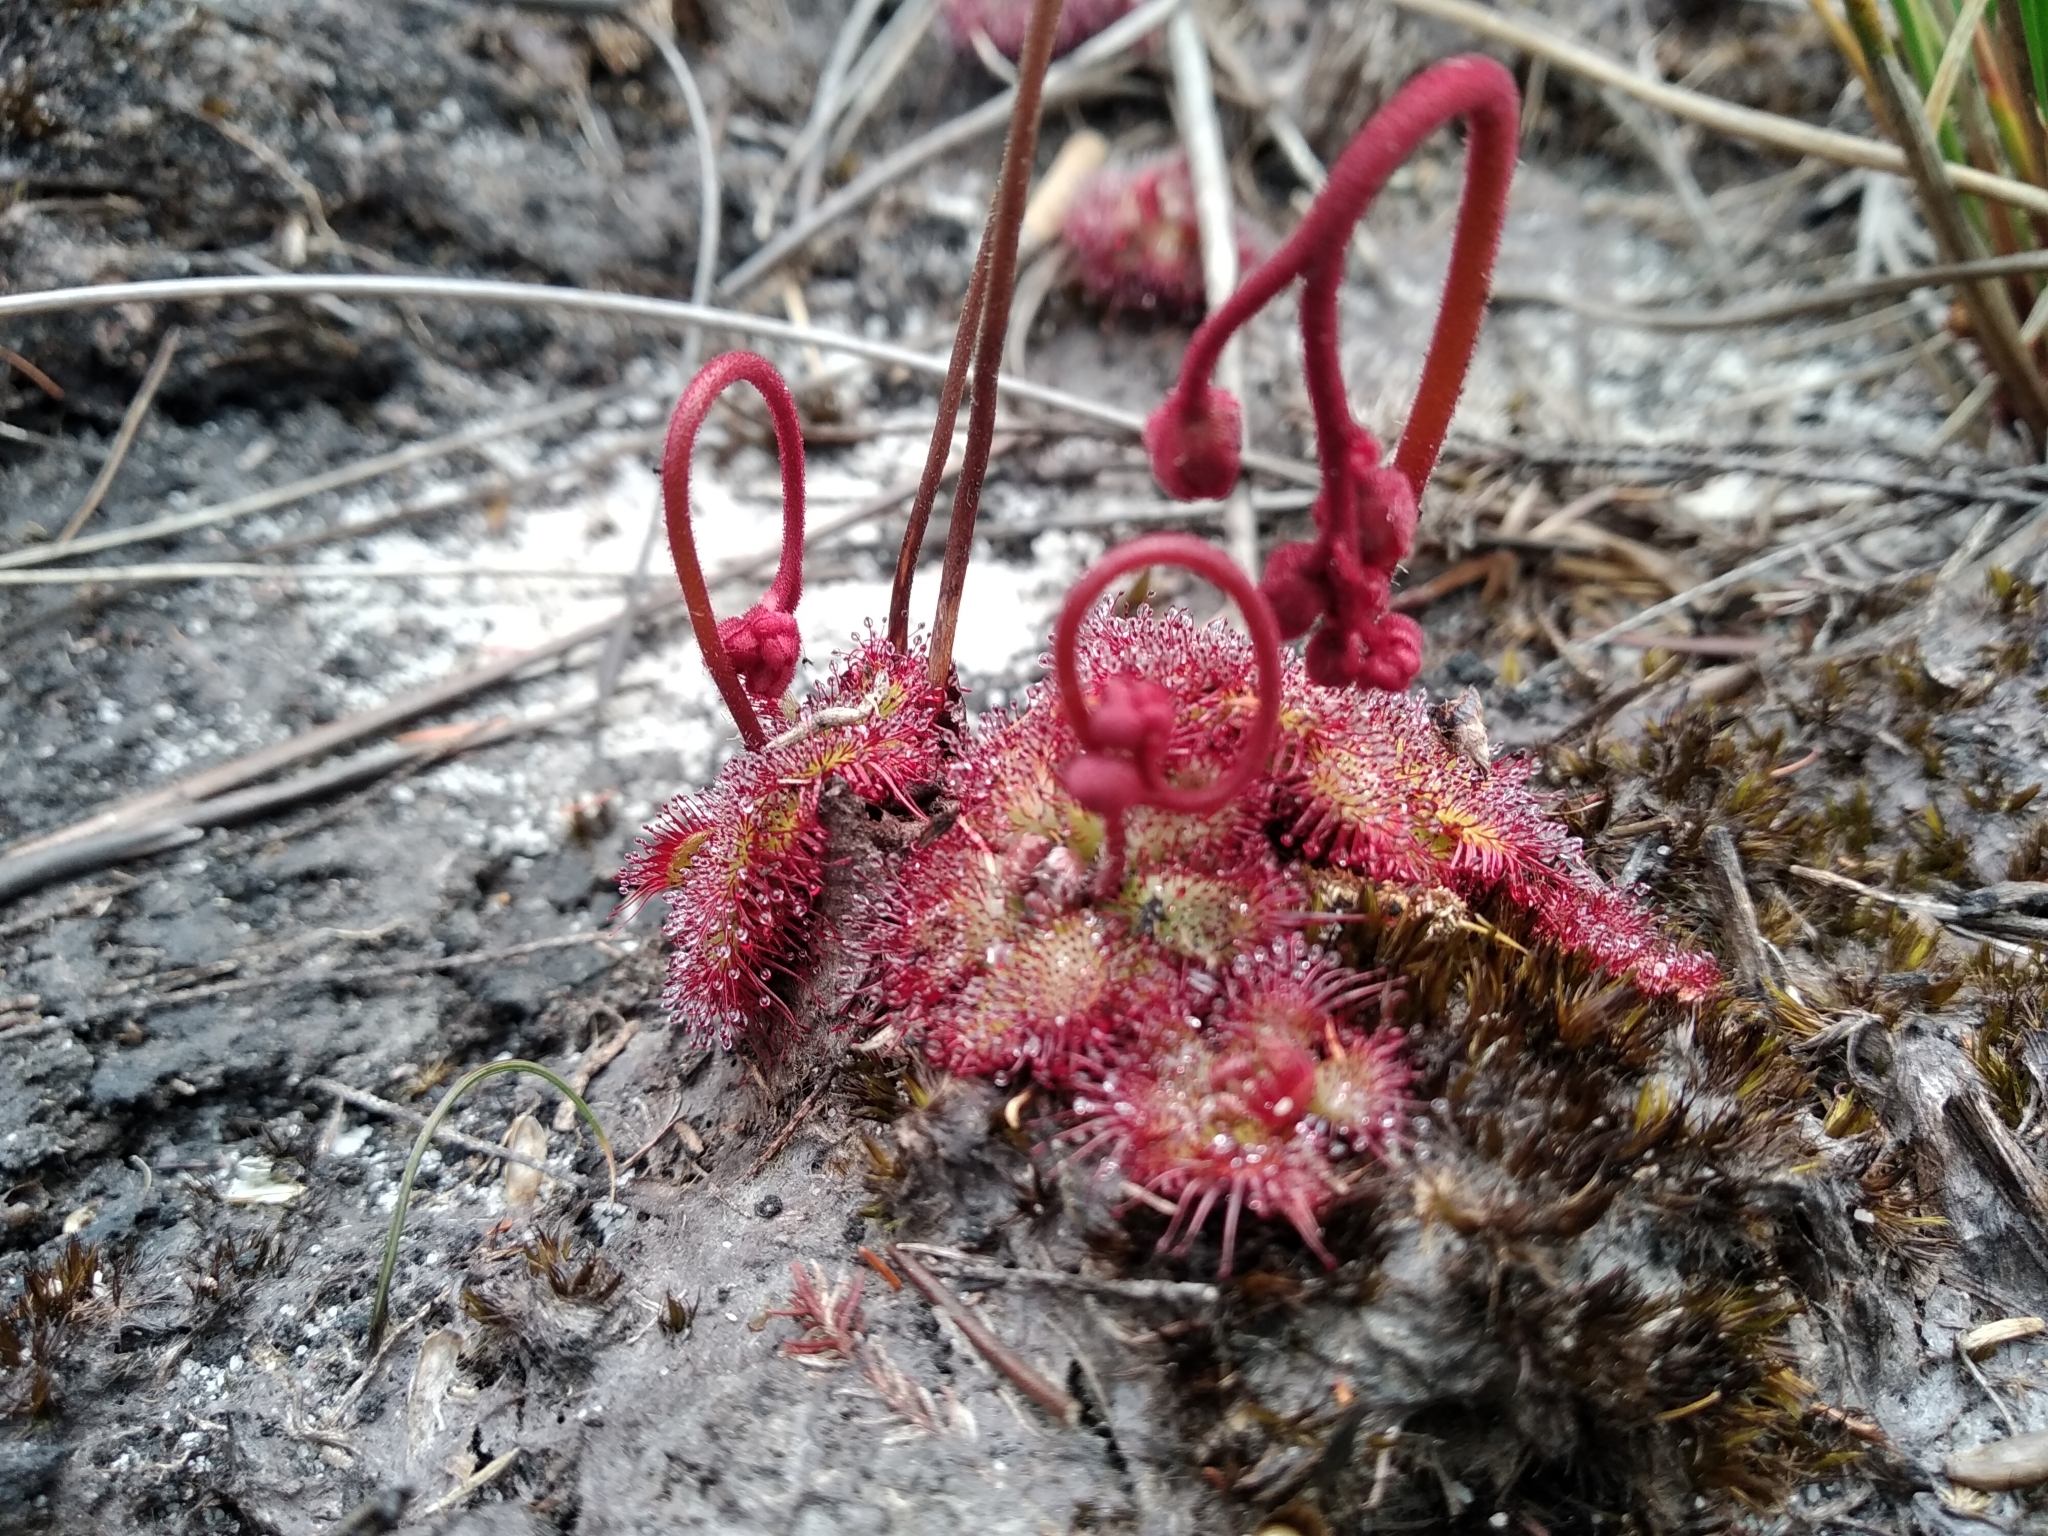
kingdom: Plantae
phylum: Tracheophyta
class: Magnoliopsida
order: Caryophyllales
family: Droseraceae
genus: Drosera
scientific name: Drosera cuneifolia
